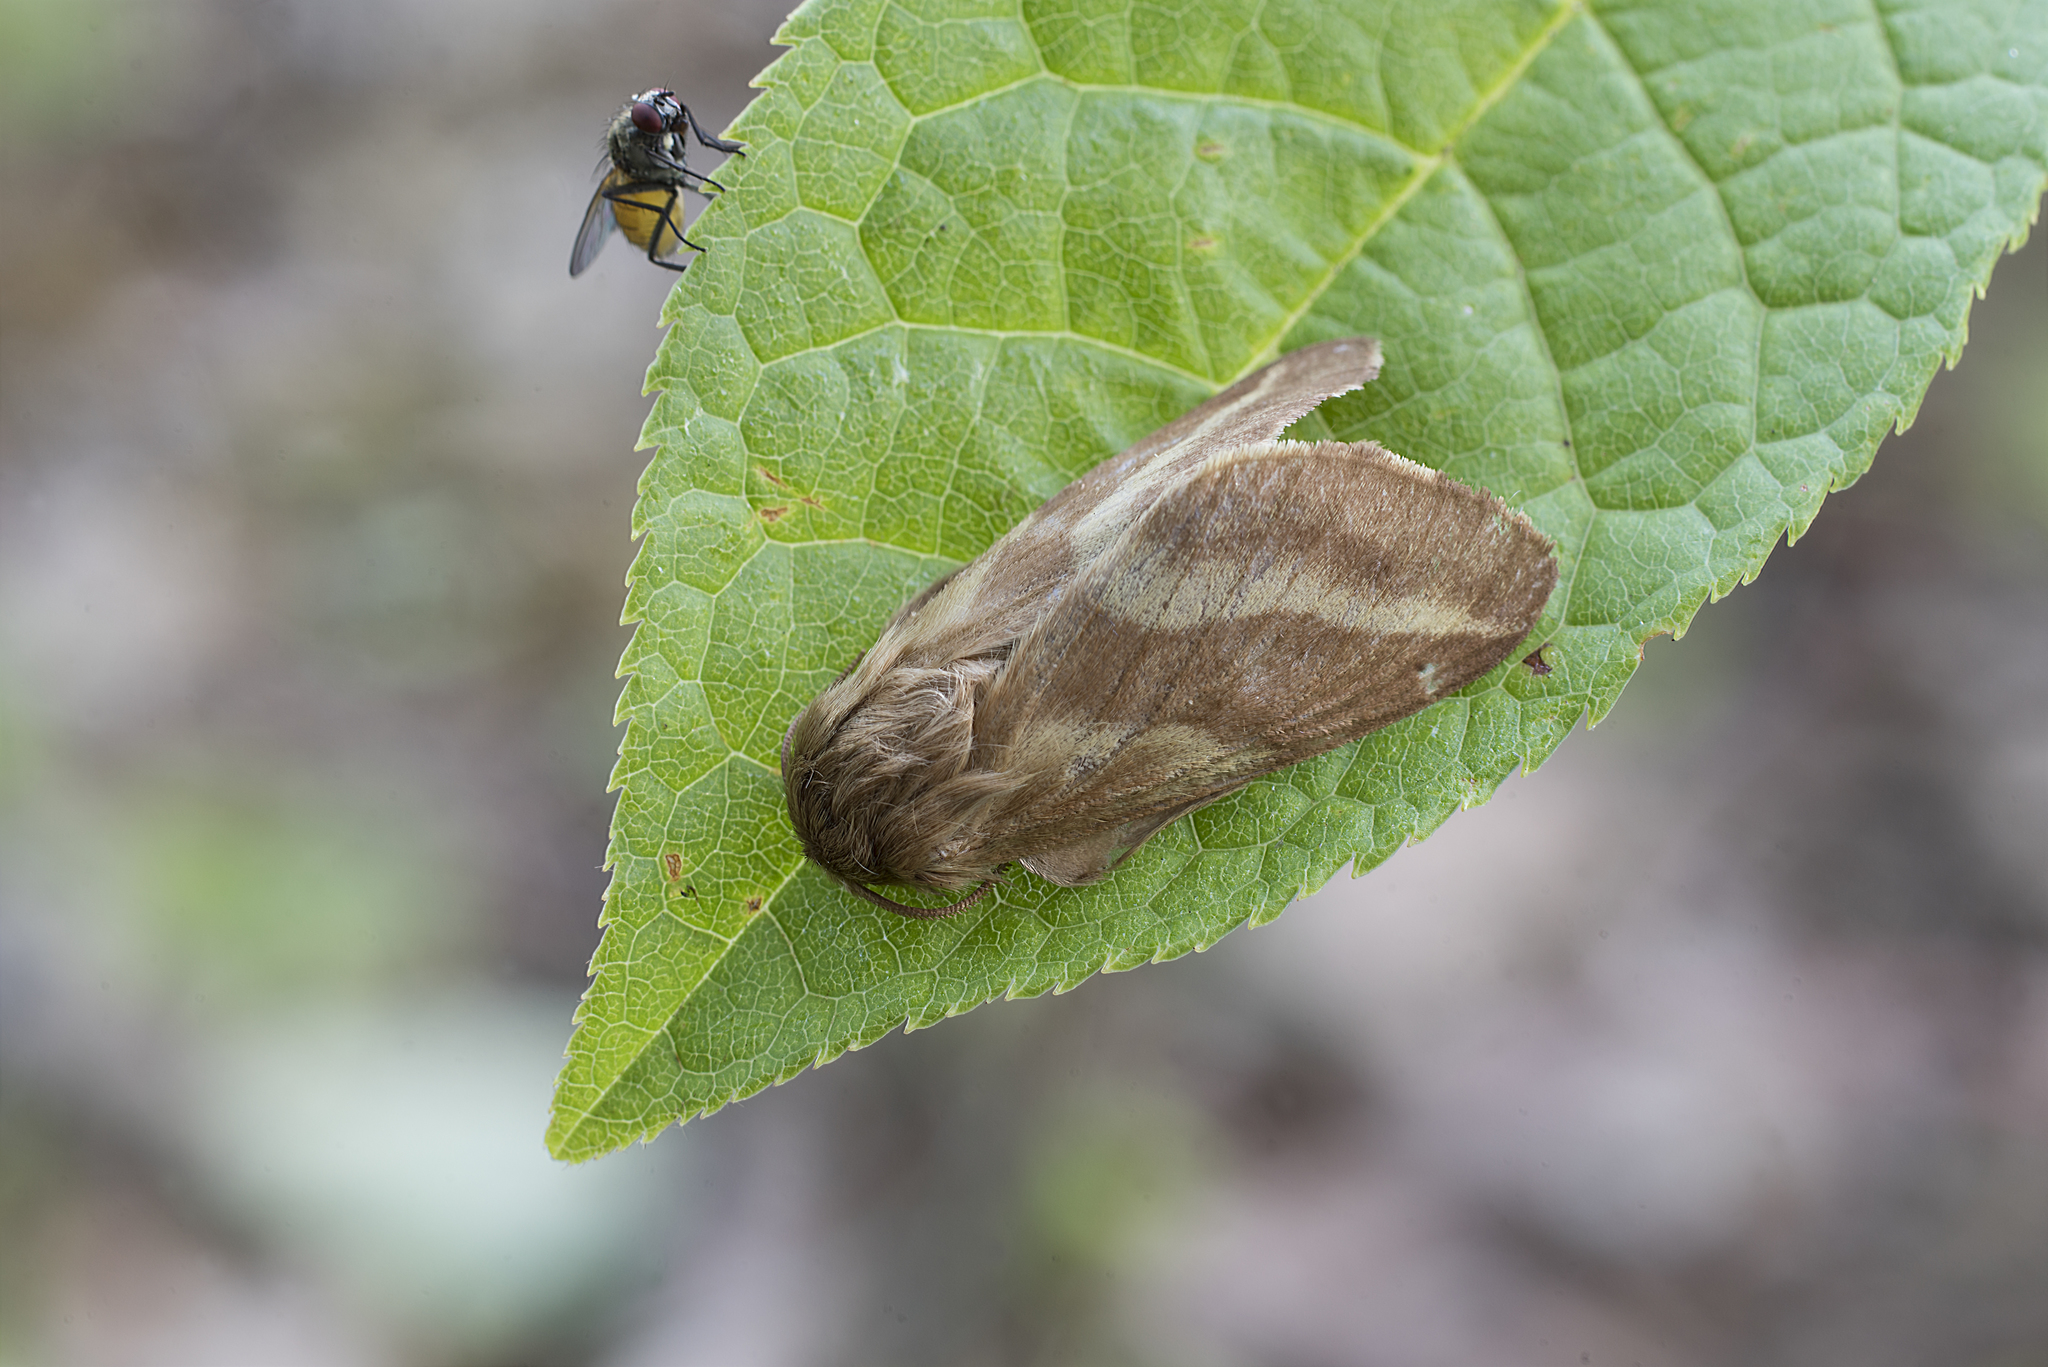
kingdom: Animalia
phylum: Arthropoda
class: Insecta
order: Lepidoptera
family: Lasiocampidae
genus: Malacosoma
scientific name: Malacosoma castrense
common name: Ground lackey
